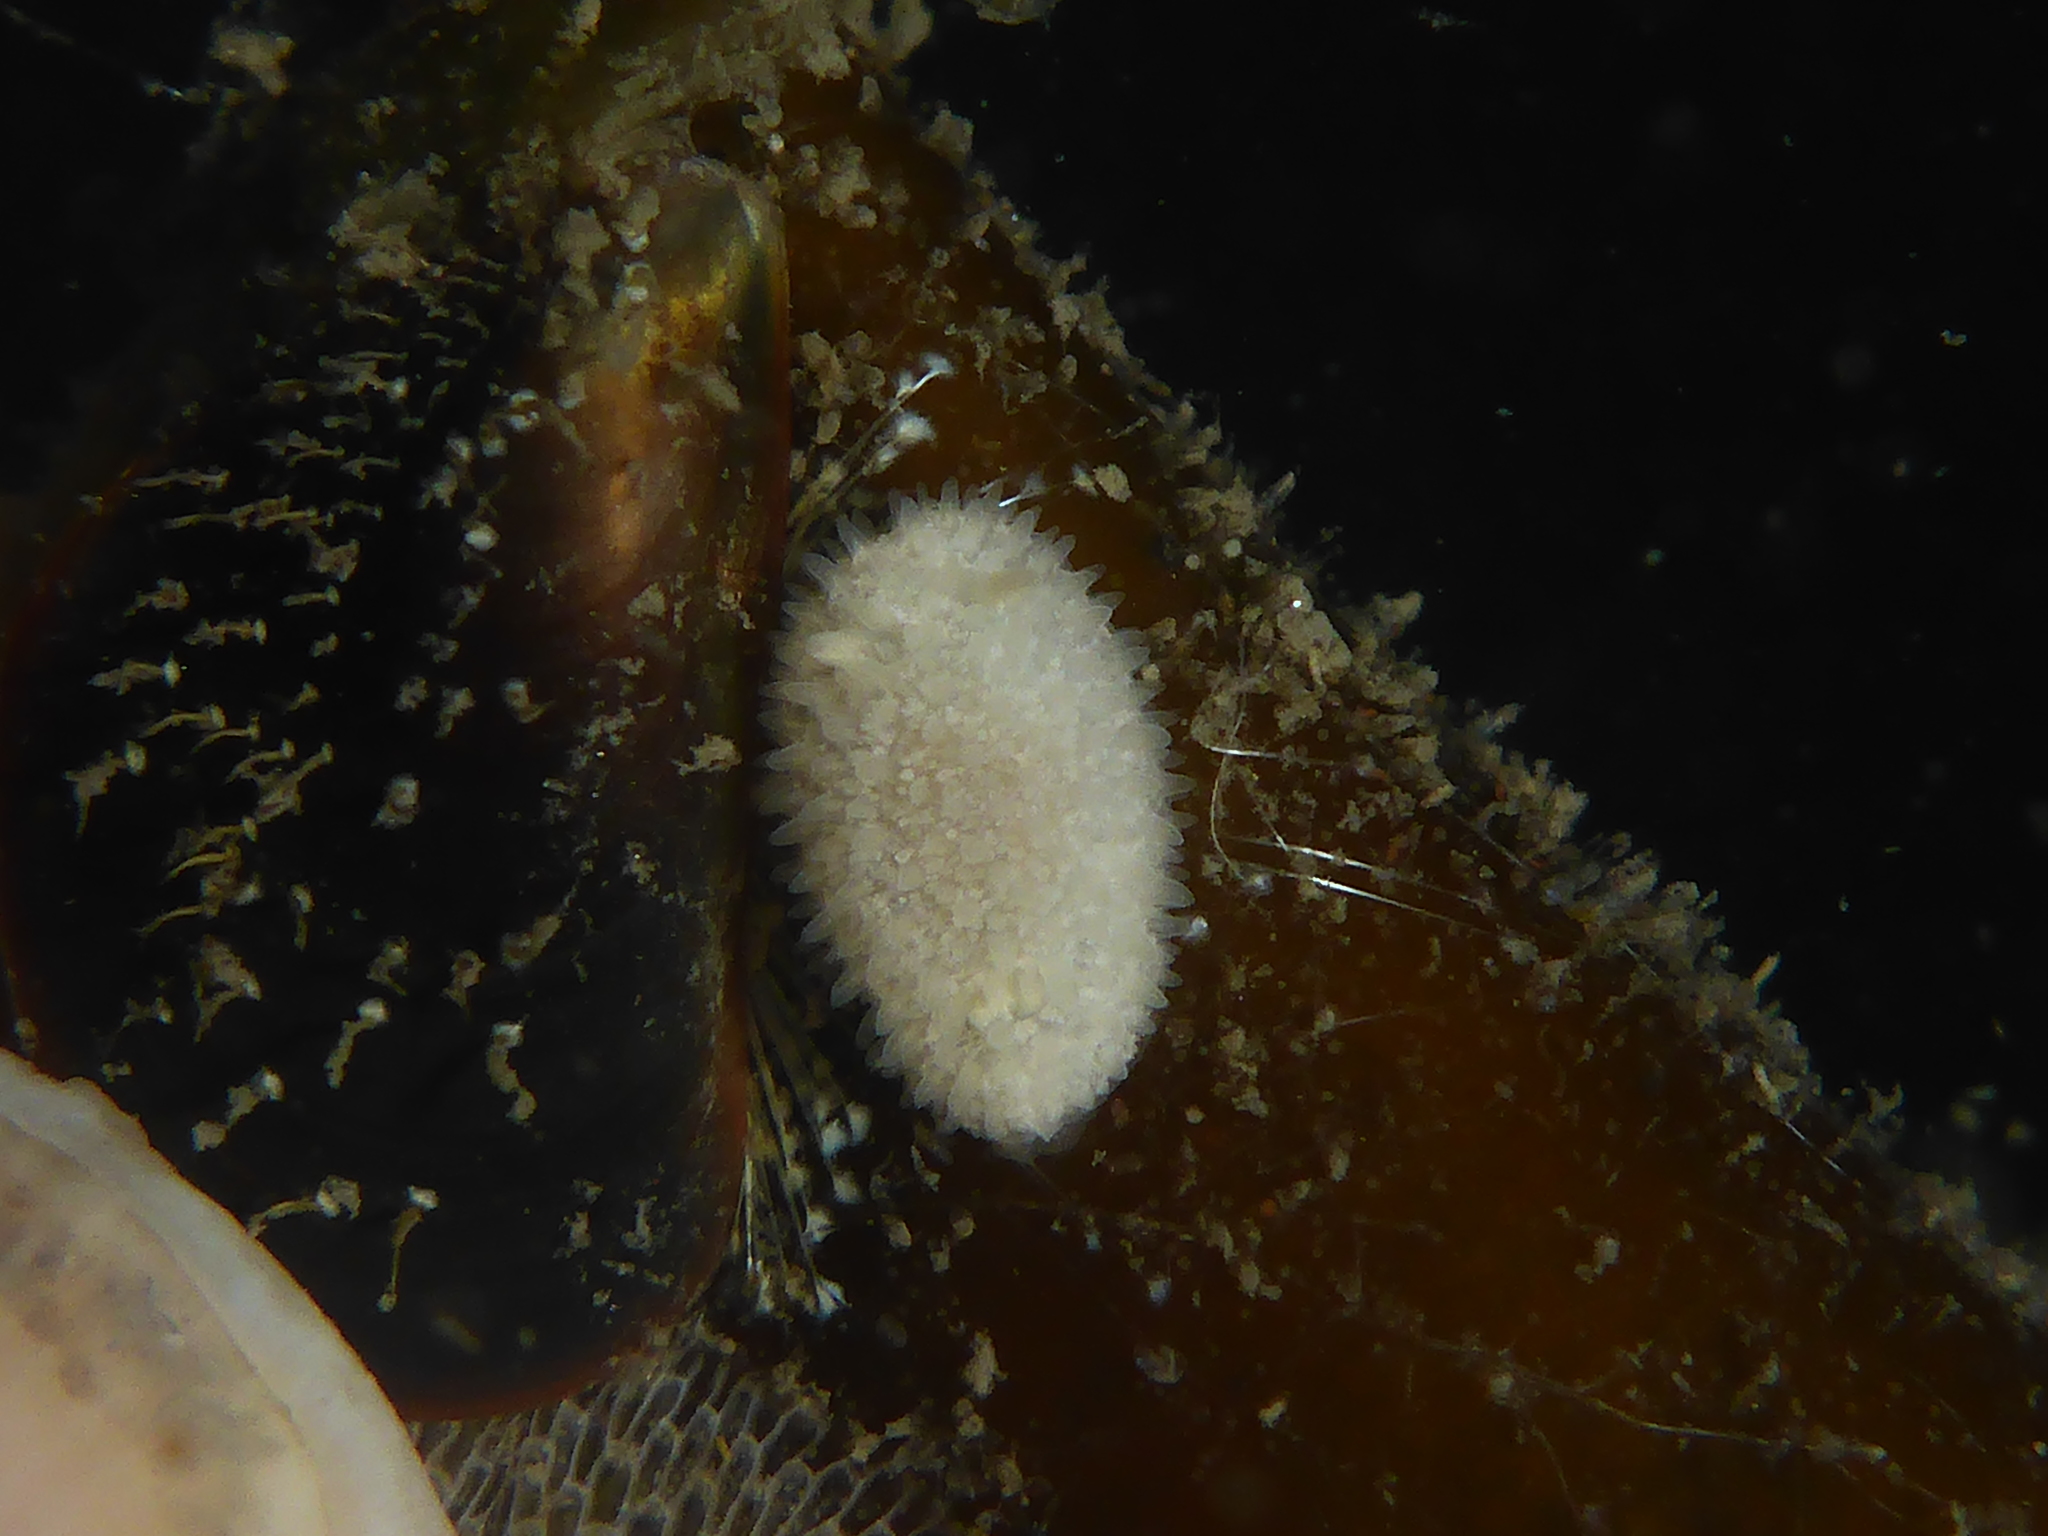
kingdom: Animalia
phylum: Mollusca
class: Gastropoda
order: Nudibranchia
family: Calycidorididae
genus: Diaphorodoris
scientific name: Diaphorodoris lirulatocauda
